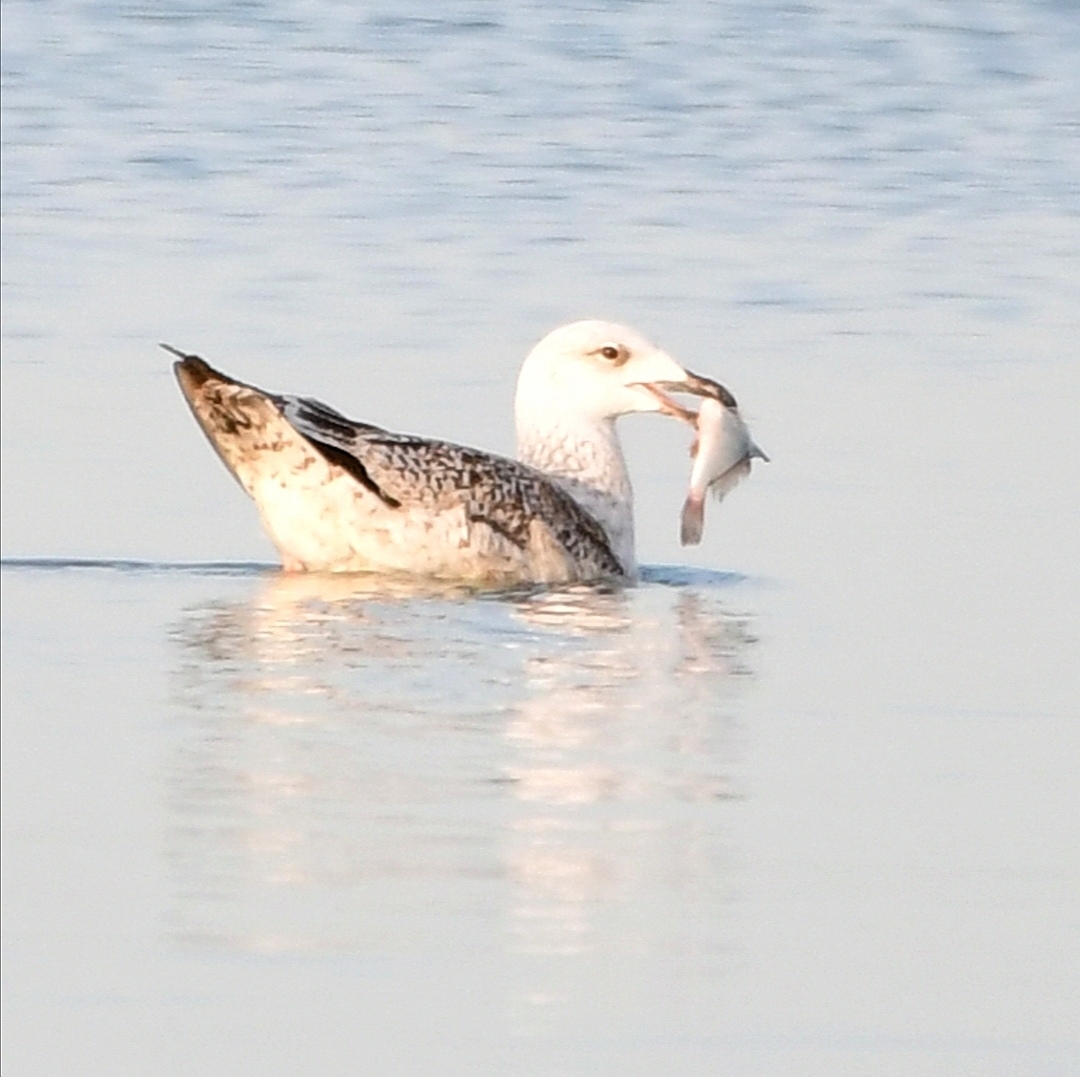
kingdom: Animalia
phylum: Chordata
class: Aves
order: Charadriiformes
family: Laridae
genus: Larus
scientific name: Larus marinus
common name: Great black-backed gull
